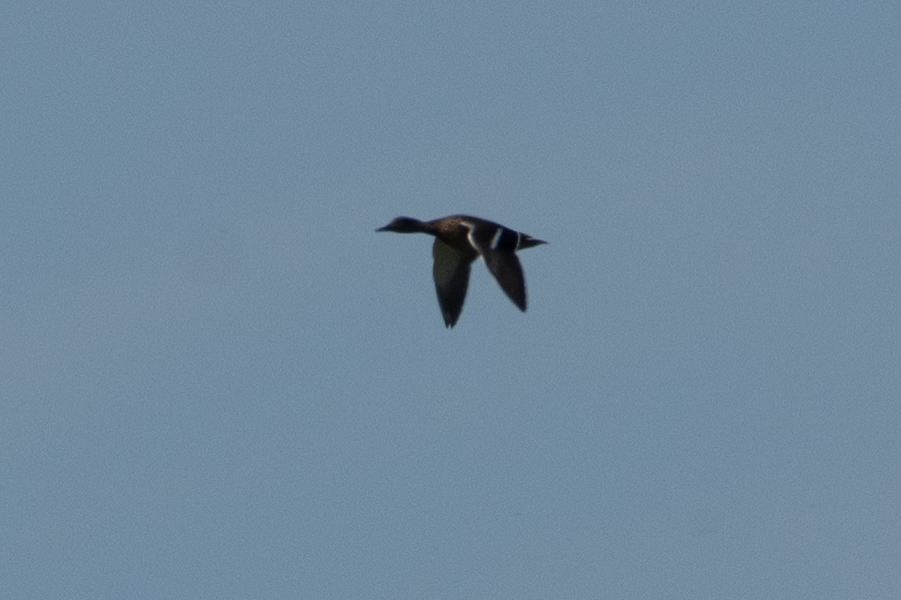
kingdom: Animalia
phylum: Chordata
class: Aves
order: Anseriformes
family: Anatidae
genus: Anas
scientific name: Anas platyrhynchos
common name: Mallard
